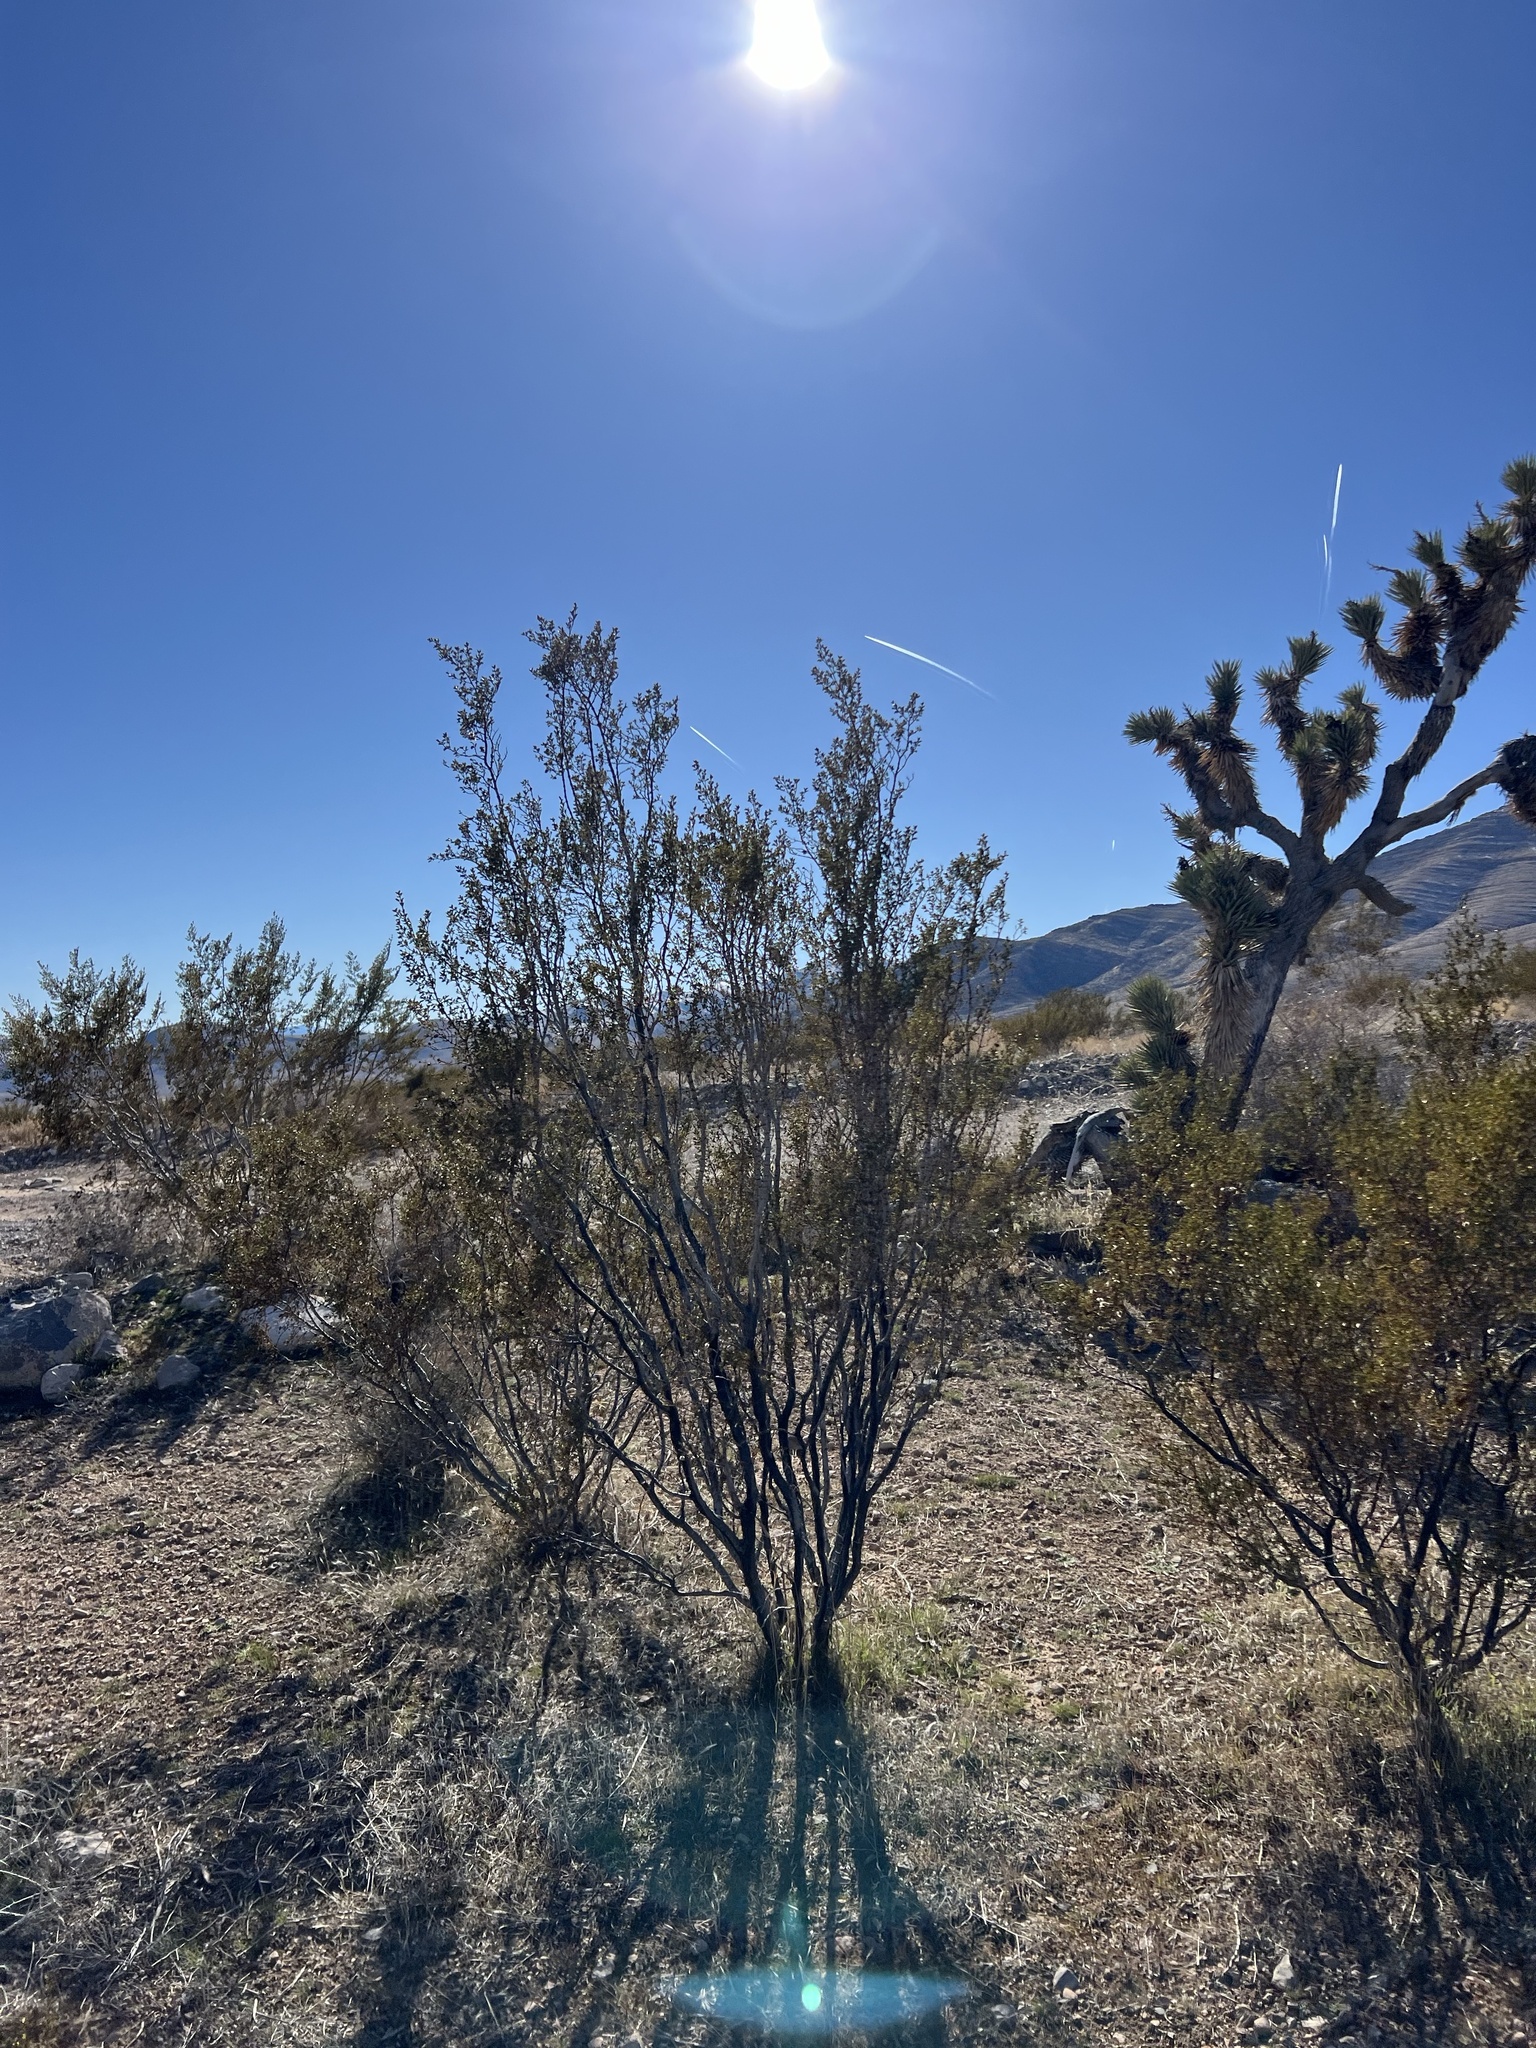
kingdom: Plantae
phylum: Tracheophyta
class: Magnoliopsida
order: Zygophyllales
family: Zygophyllaceae
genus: Larrea
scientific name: Larrea tridentata
